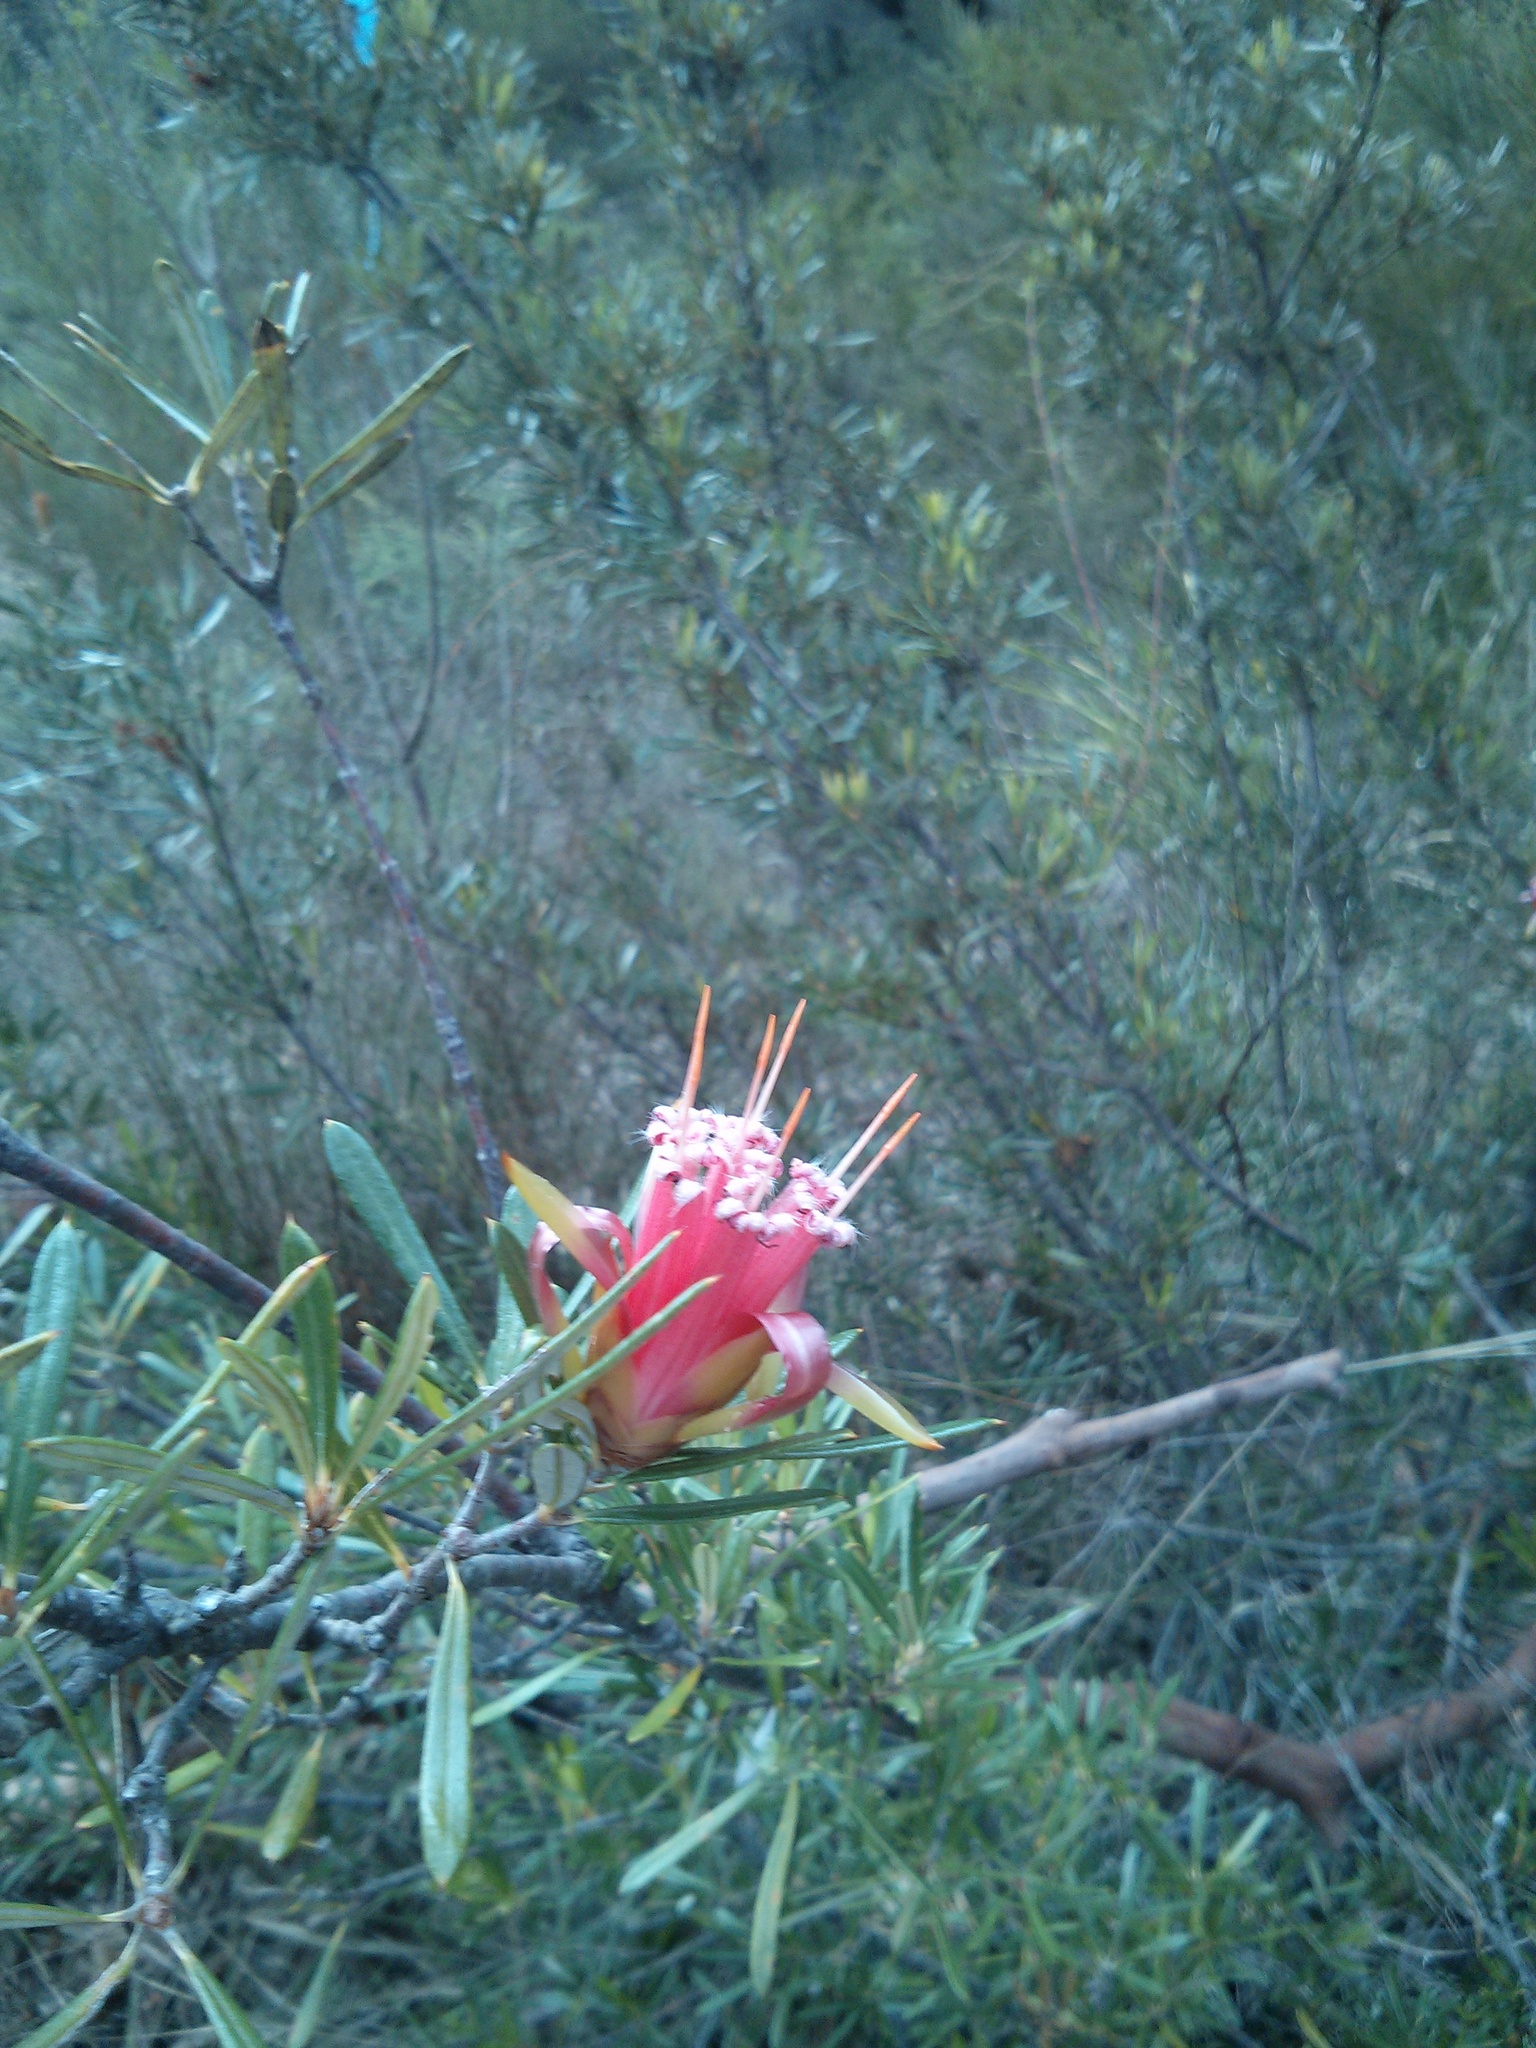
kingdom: Plantae
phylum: Tracheophyta
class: Magnoliopsida
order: Proteales
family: Proteaceae
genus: Lambertia
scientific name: Lambertia formosa
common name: Mountain-devil
